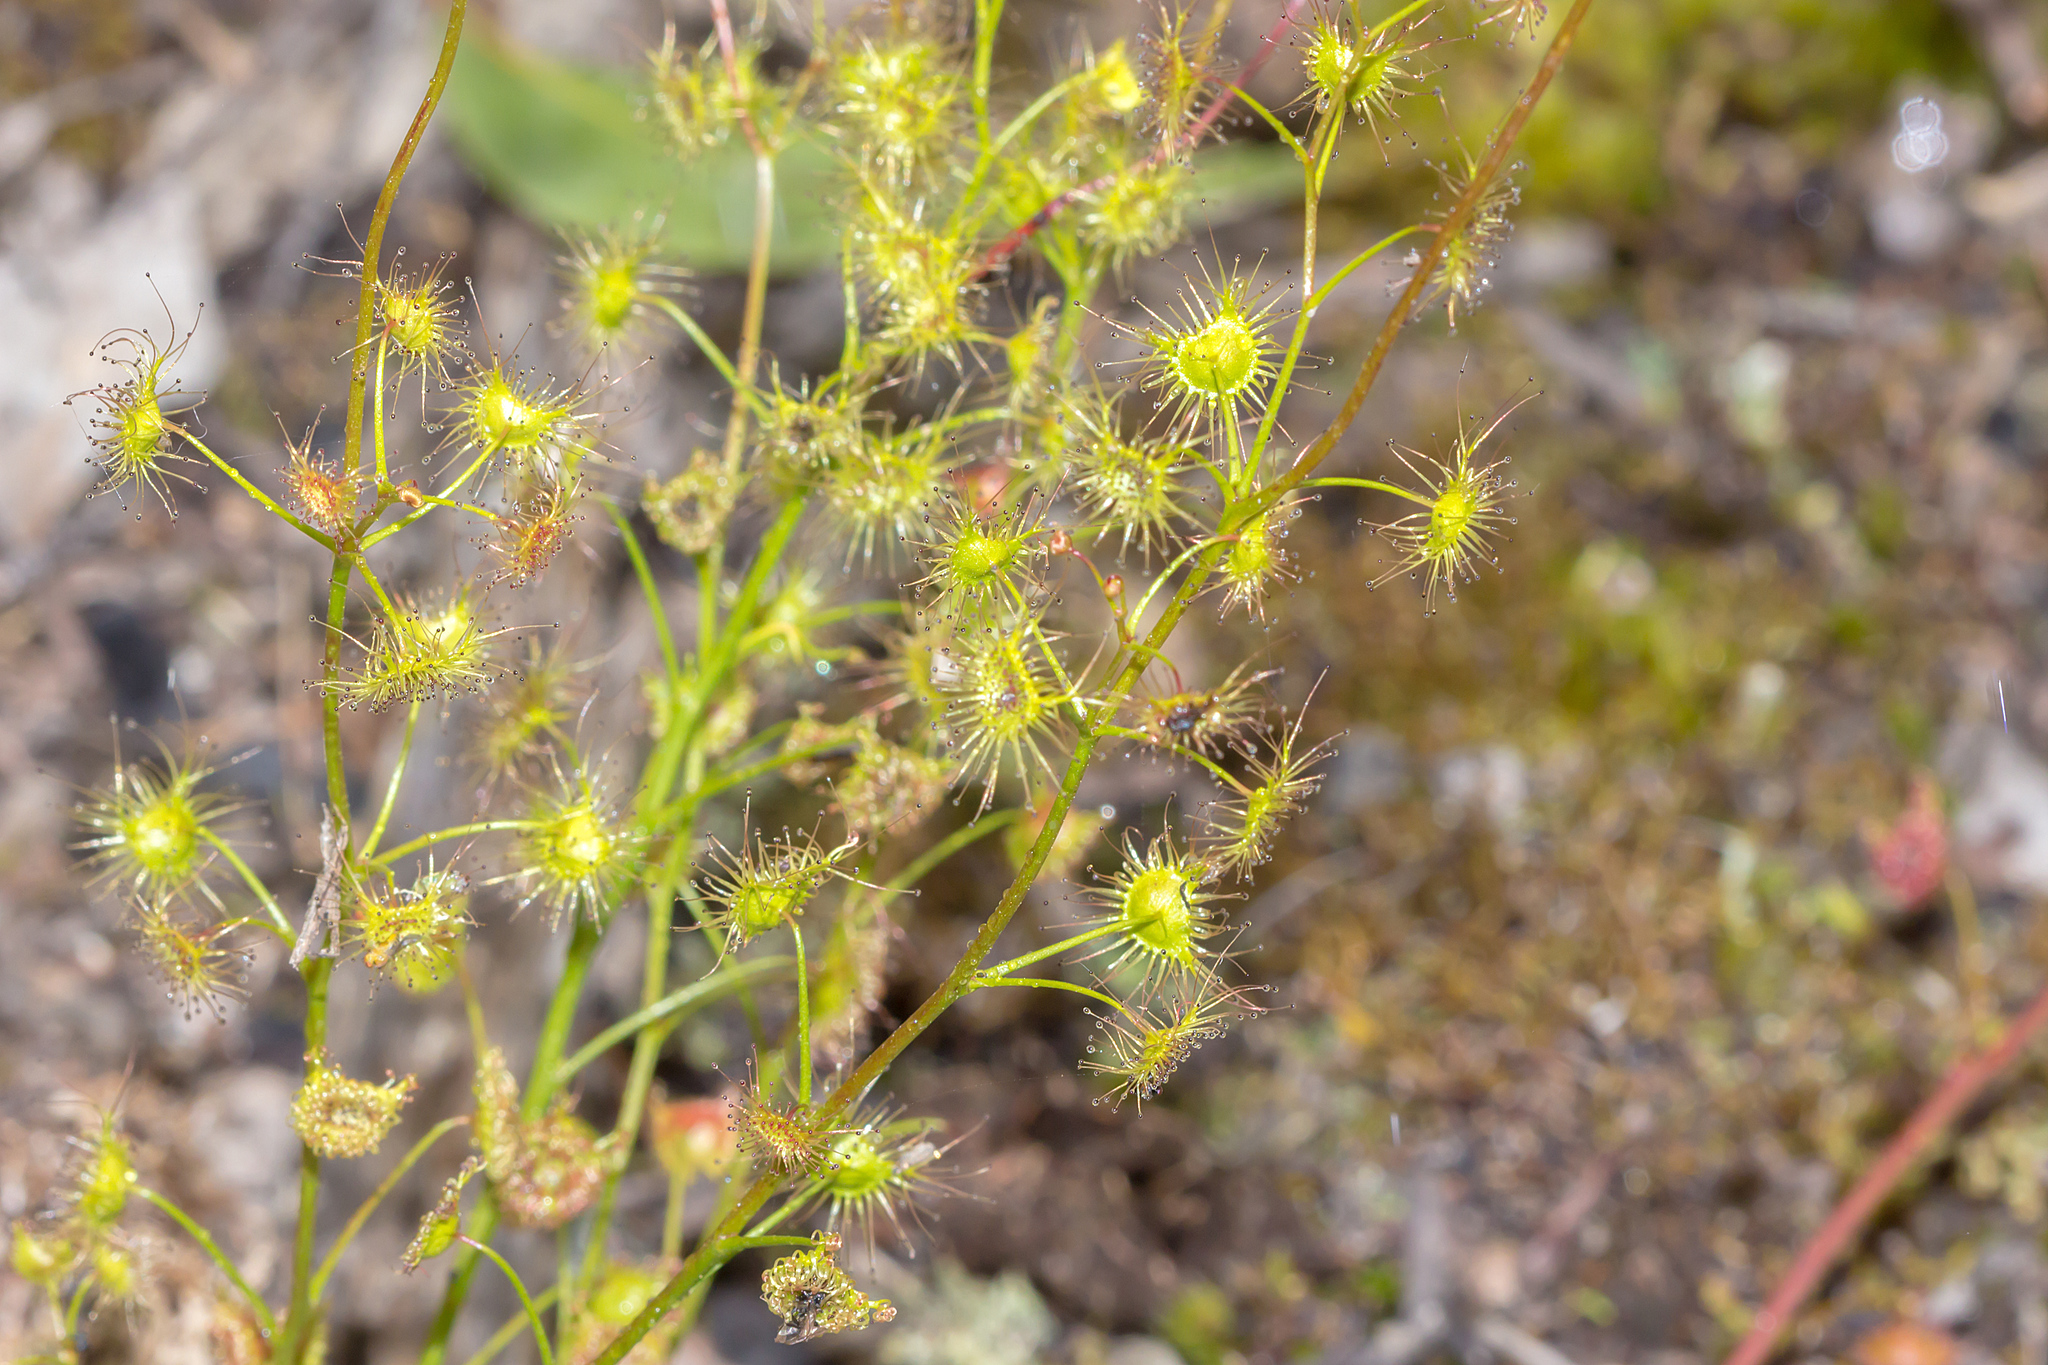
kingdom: Plantae
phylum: Tracheophyta
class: Magnoliopsida
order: Caryophyllales
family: Droseraceae
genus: Drosera
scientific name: Drosera peltata
